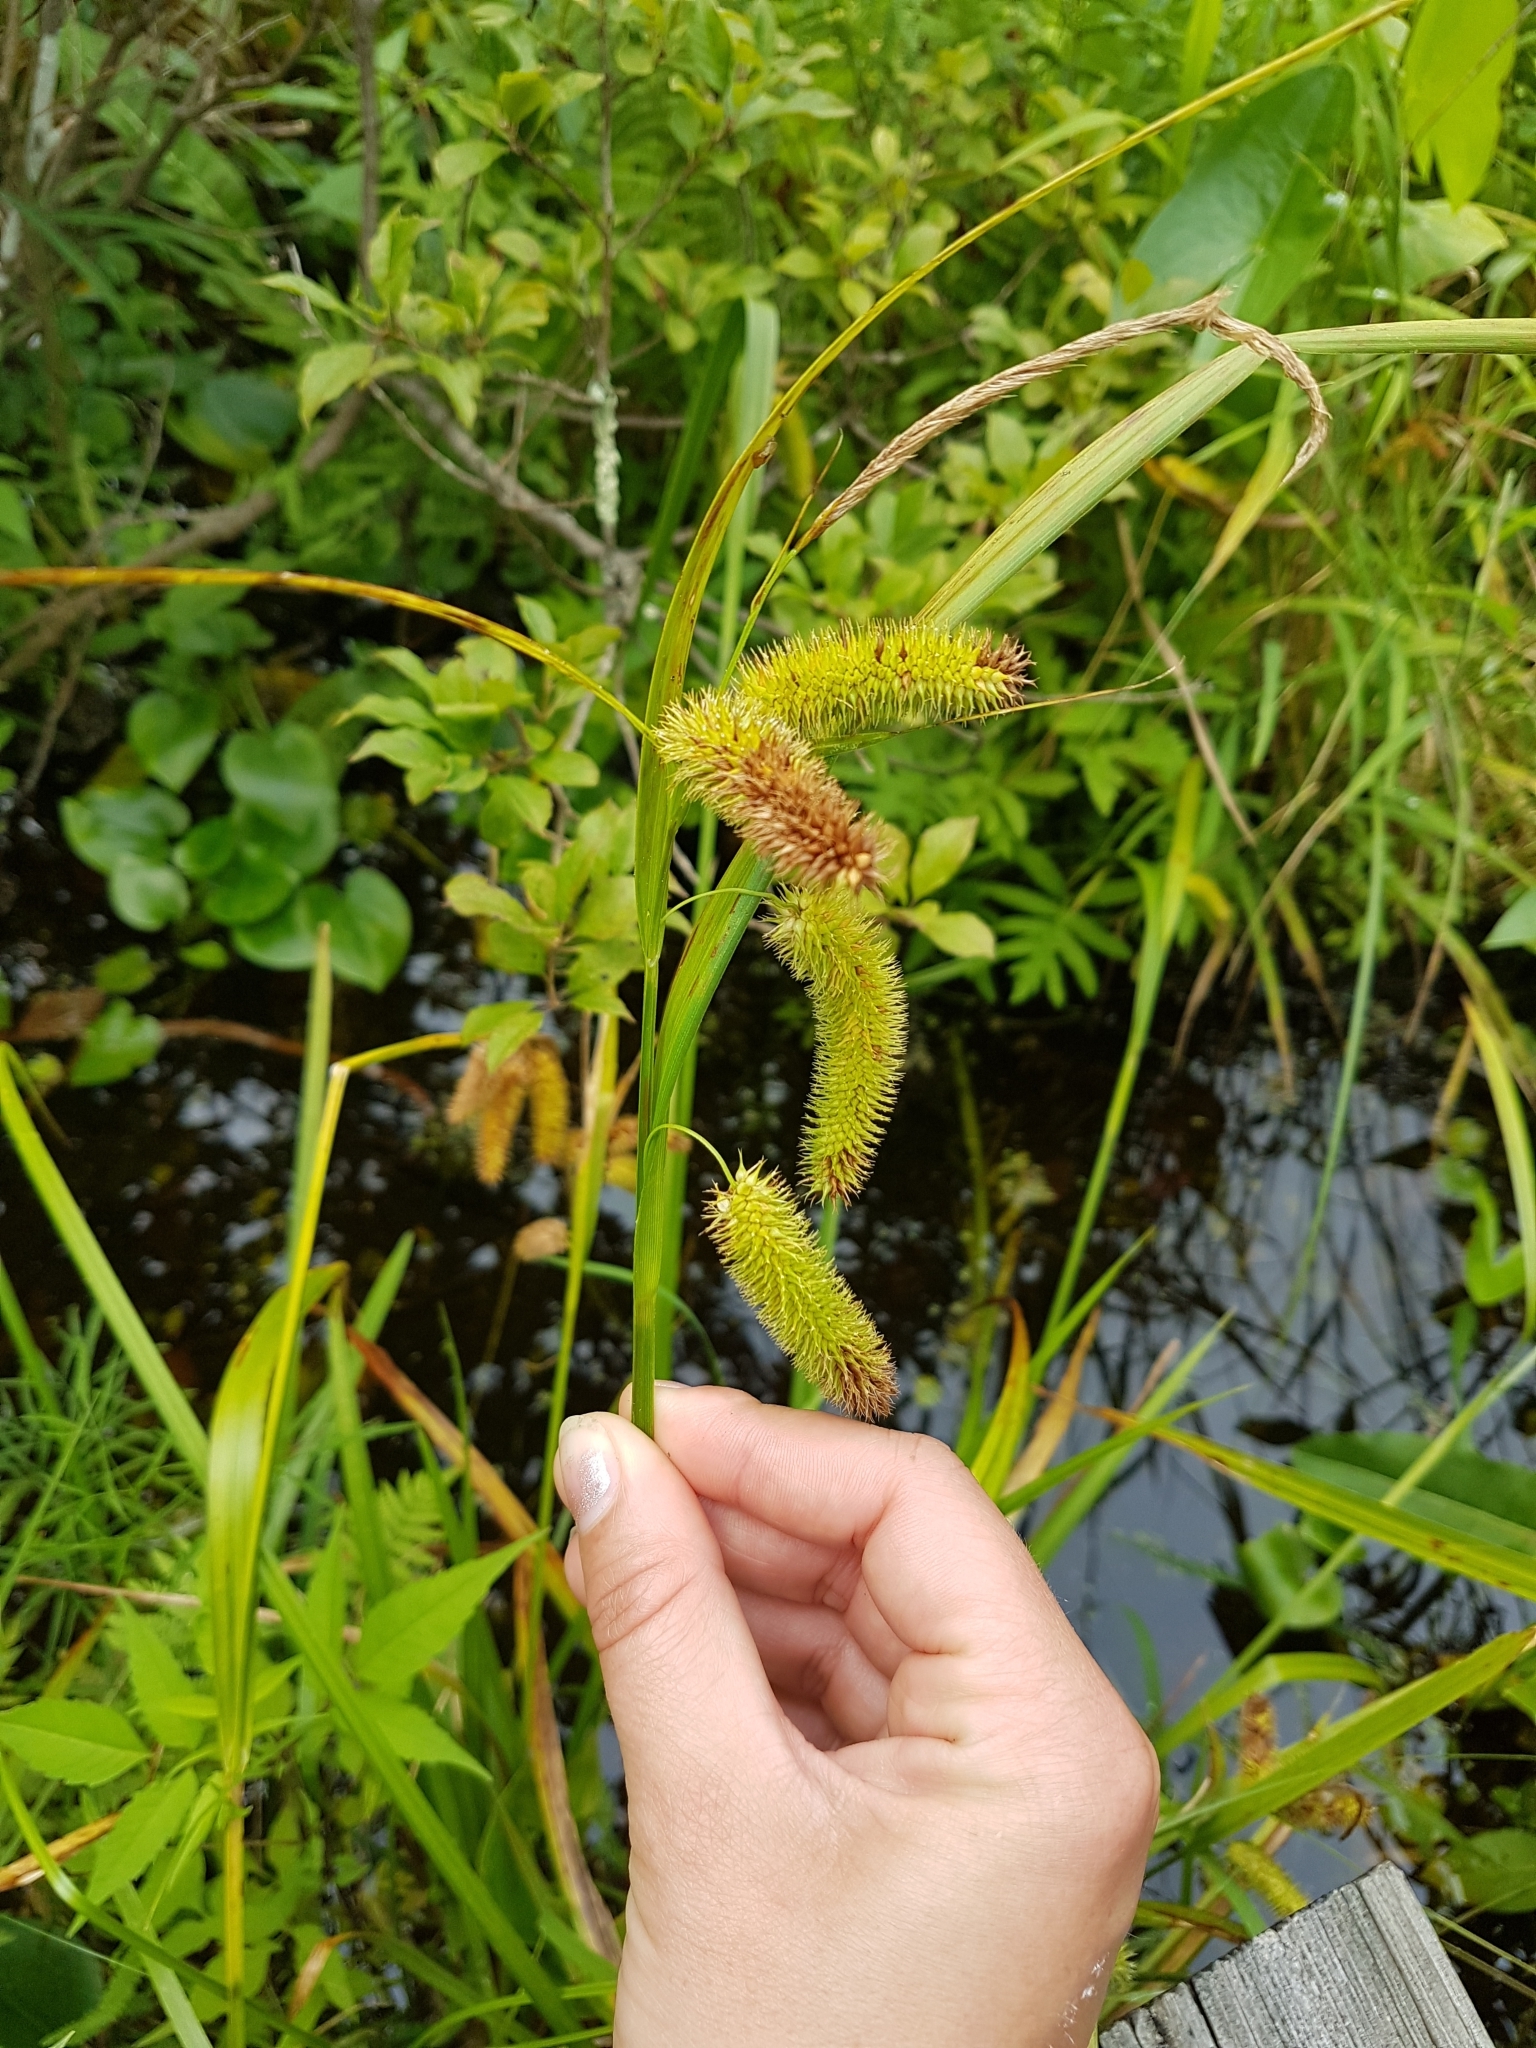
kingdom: Plantae
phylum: Tracheophyta
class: Liliopsida
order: Poales
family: Cyperaceae
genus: Carex
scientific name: Carex comosa
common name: Bristly sedge
